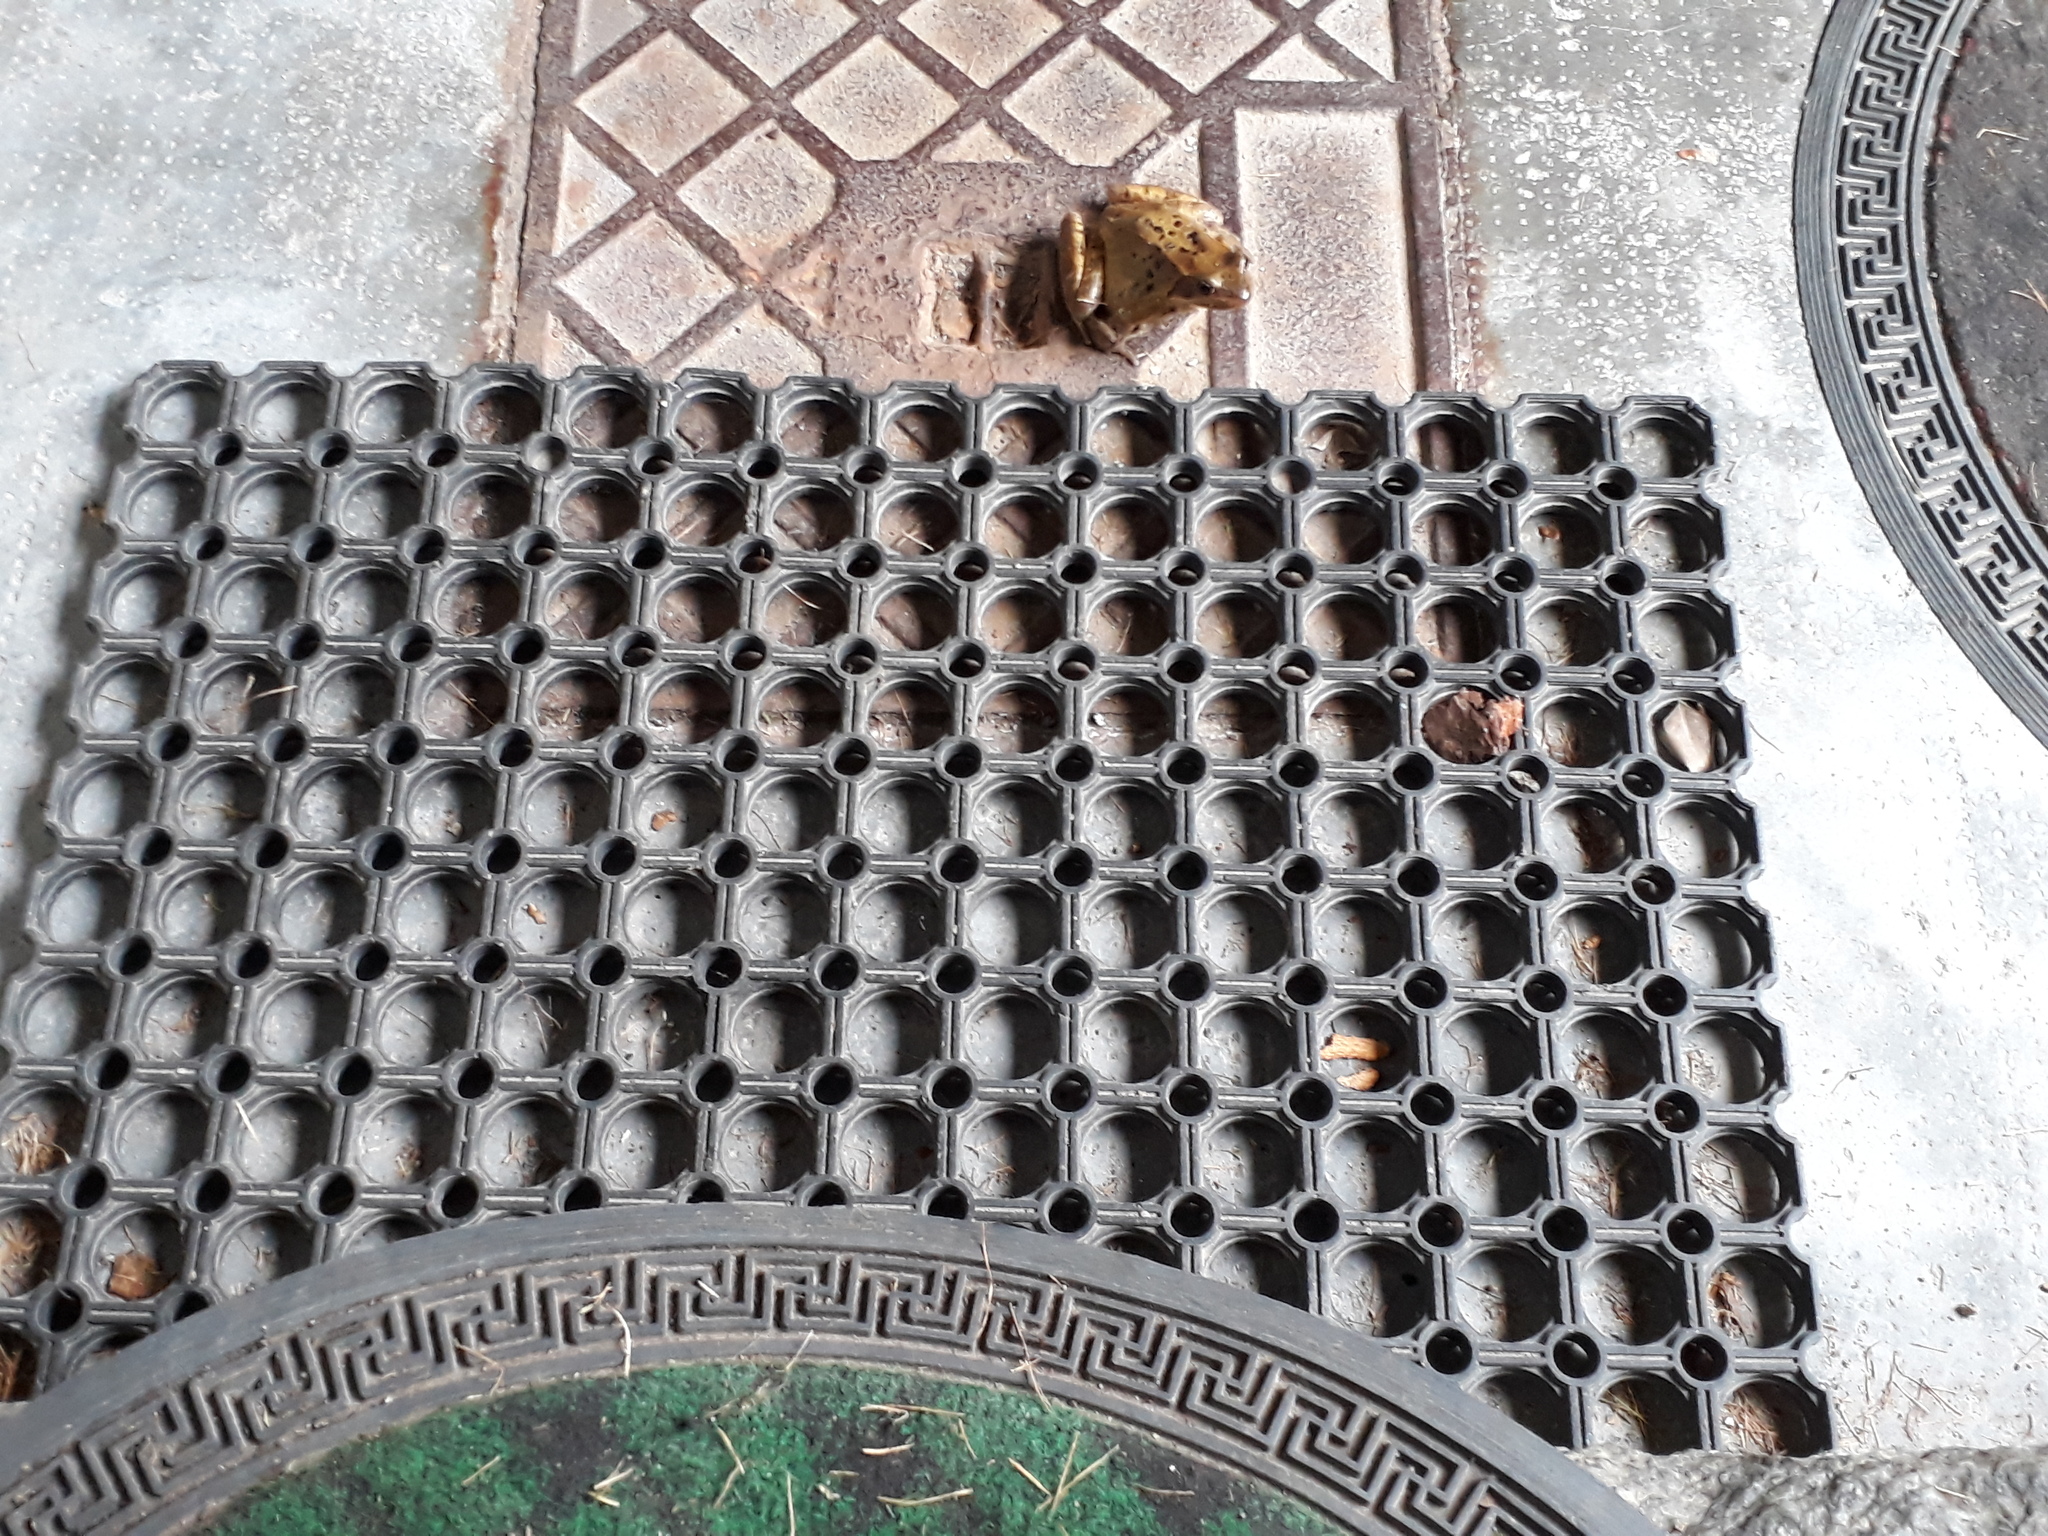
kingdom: Animalia
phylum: Chordata
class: Amphibia
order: Anura
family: Ranidae
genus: Rana
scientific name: Rana temporaria
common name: Common frog
